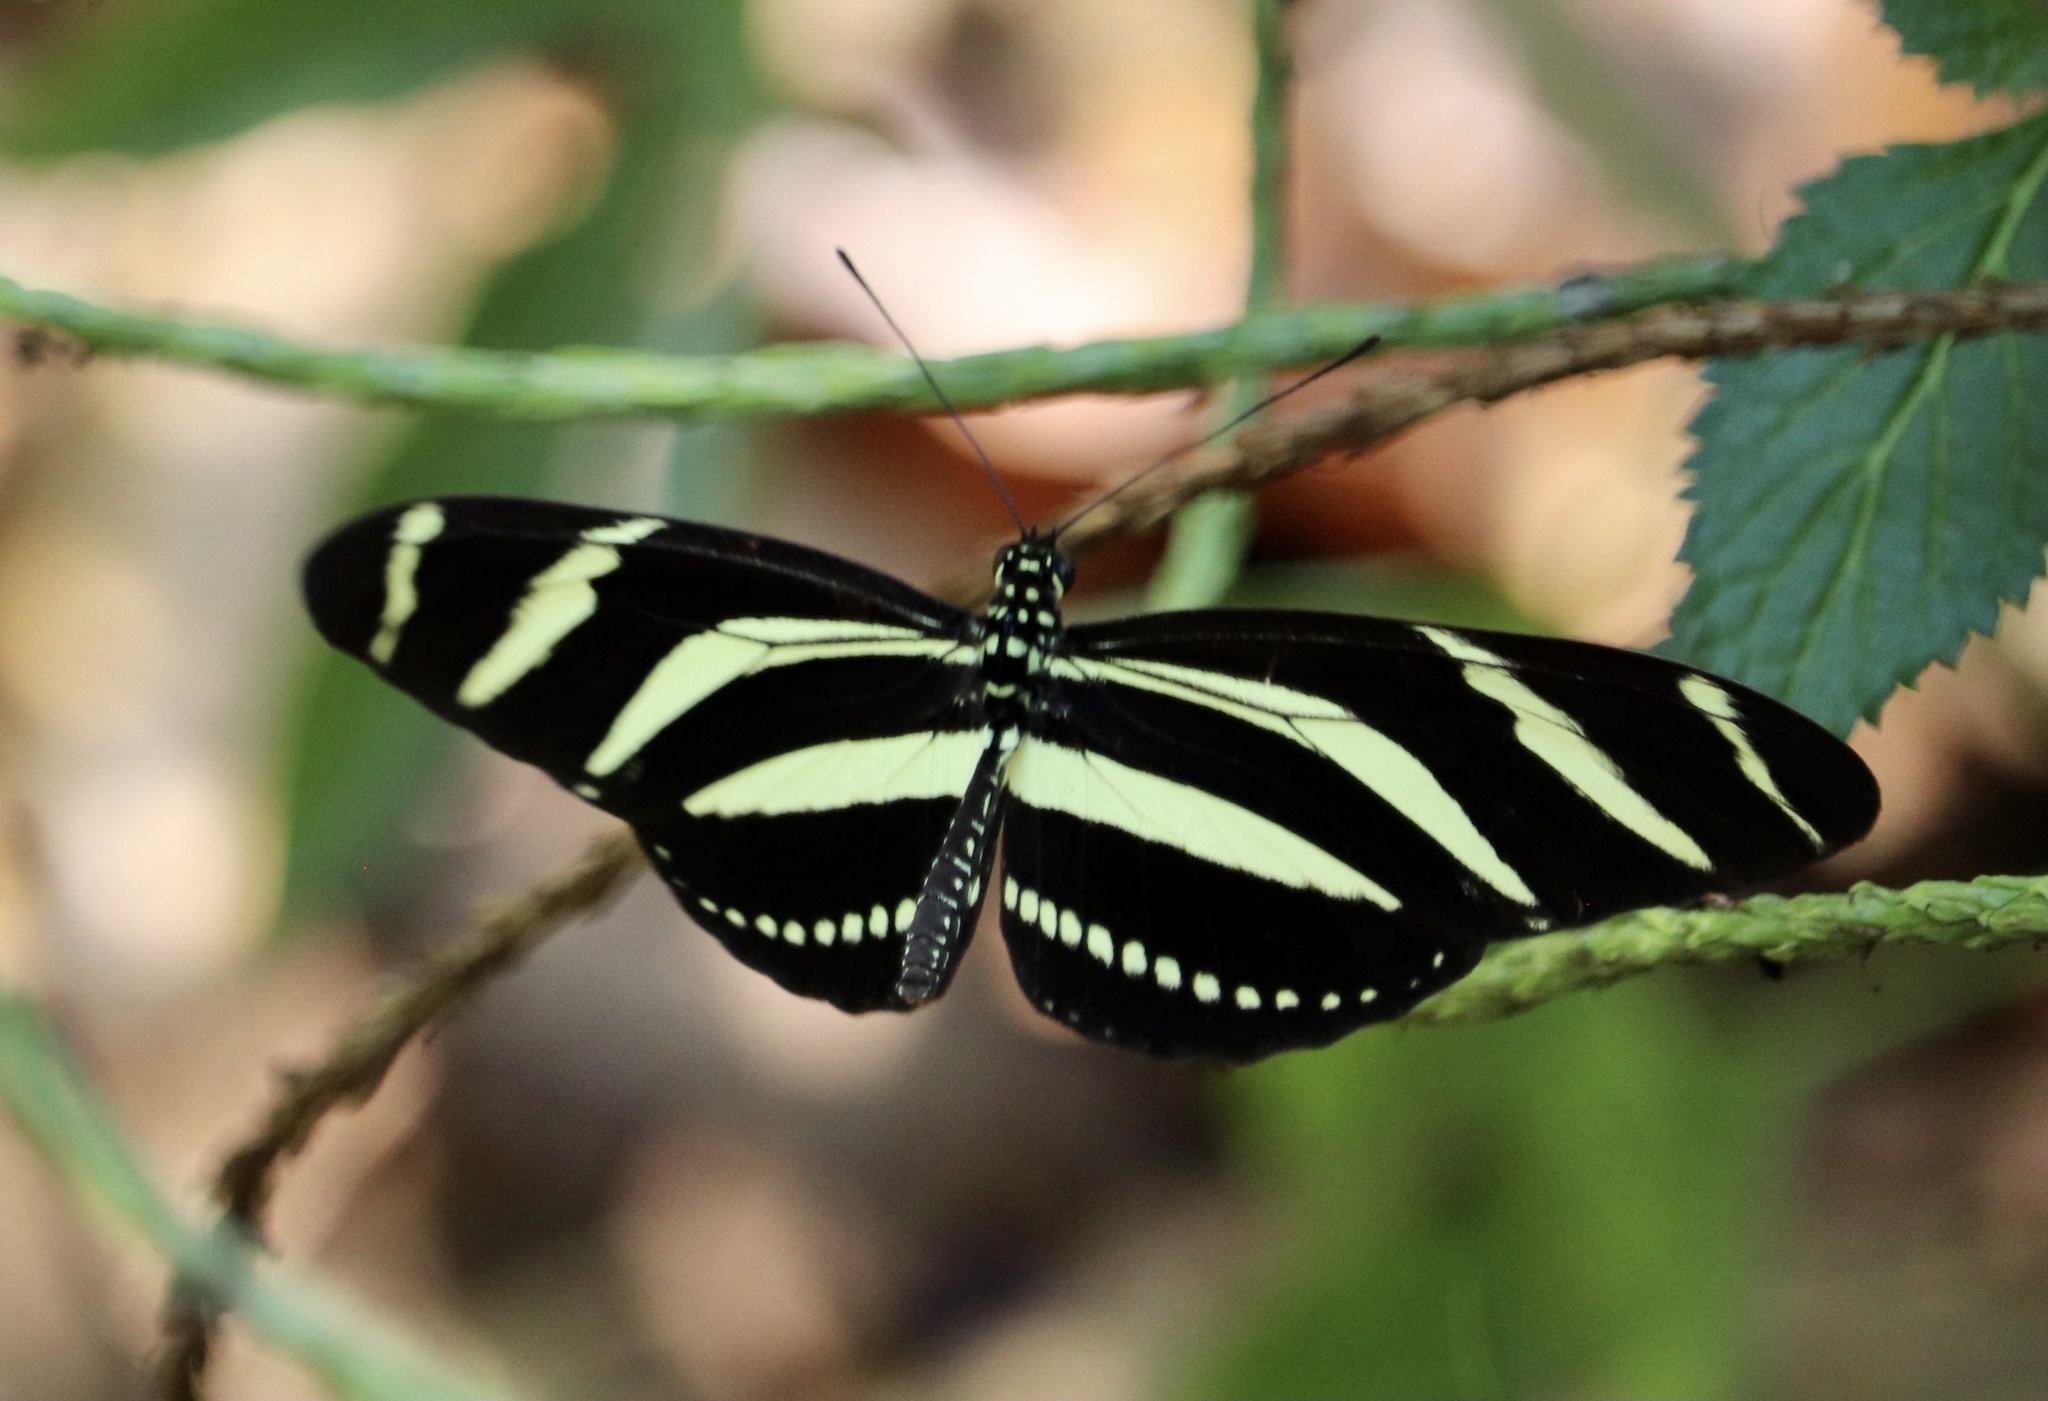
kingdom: Animalia
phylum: Arthropoda
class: Insecta
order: Lepidoptera
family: Nymphalidae
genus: Heliconius
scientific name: Heliconius charithonia
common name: Zebra long wing
